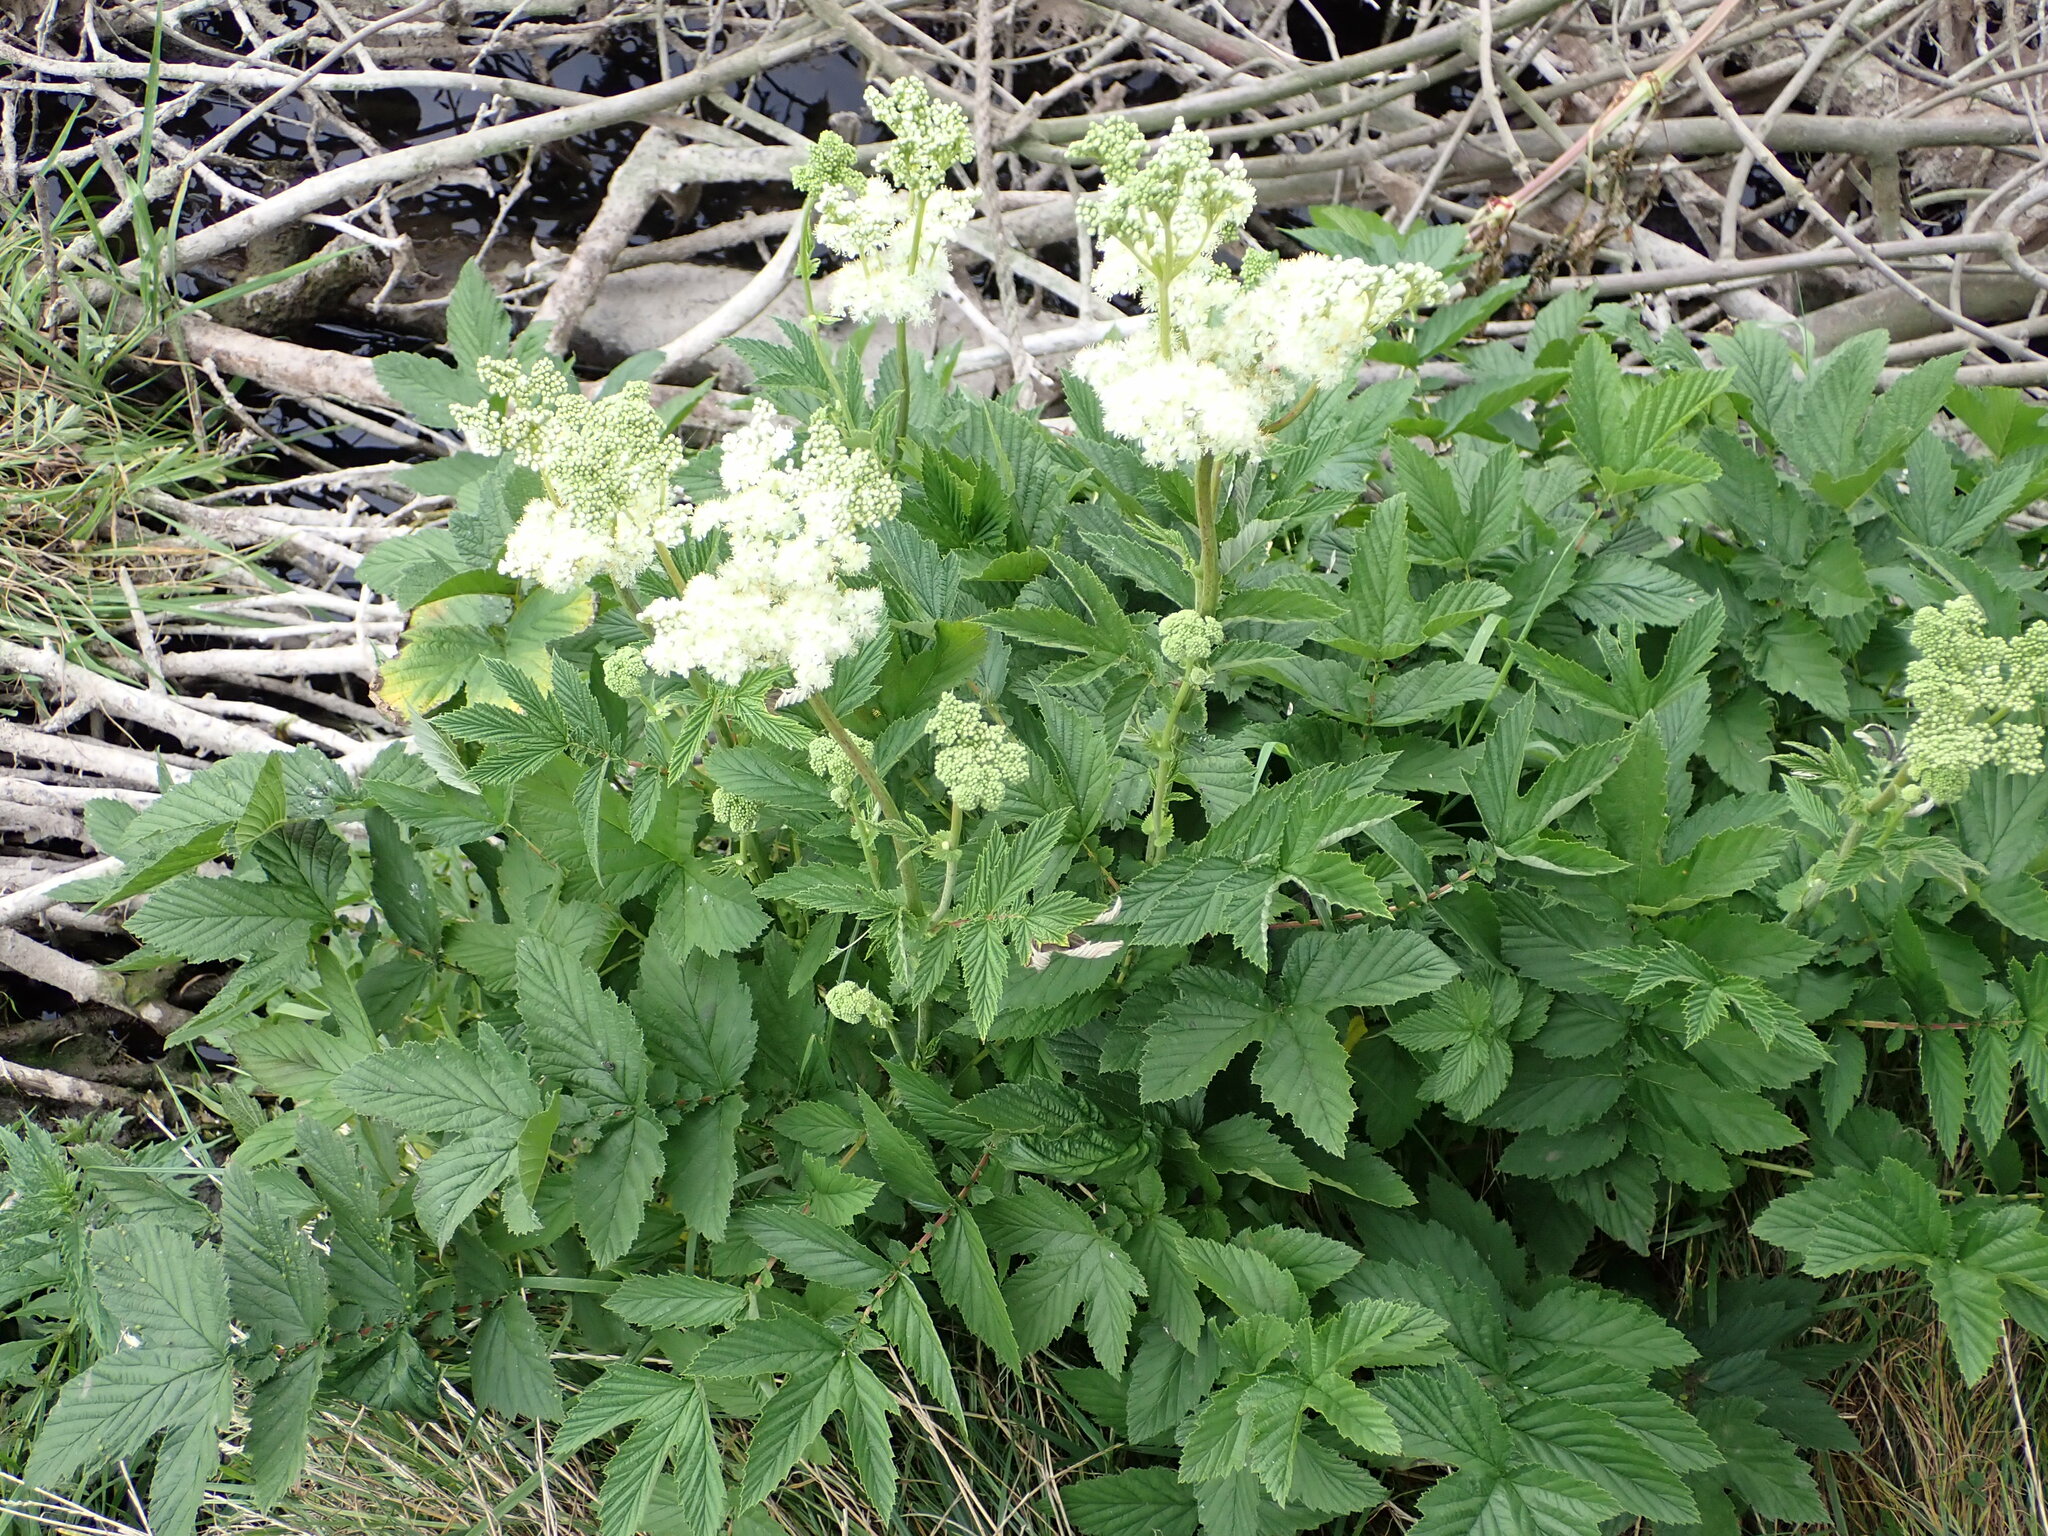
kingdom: Plantae
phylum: Tracheophyta
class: Magnoliopsida
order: Rosales
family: Rosaceae
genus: Filipendula
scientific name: Filipendula ulmaria
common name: Meadowsweet
